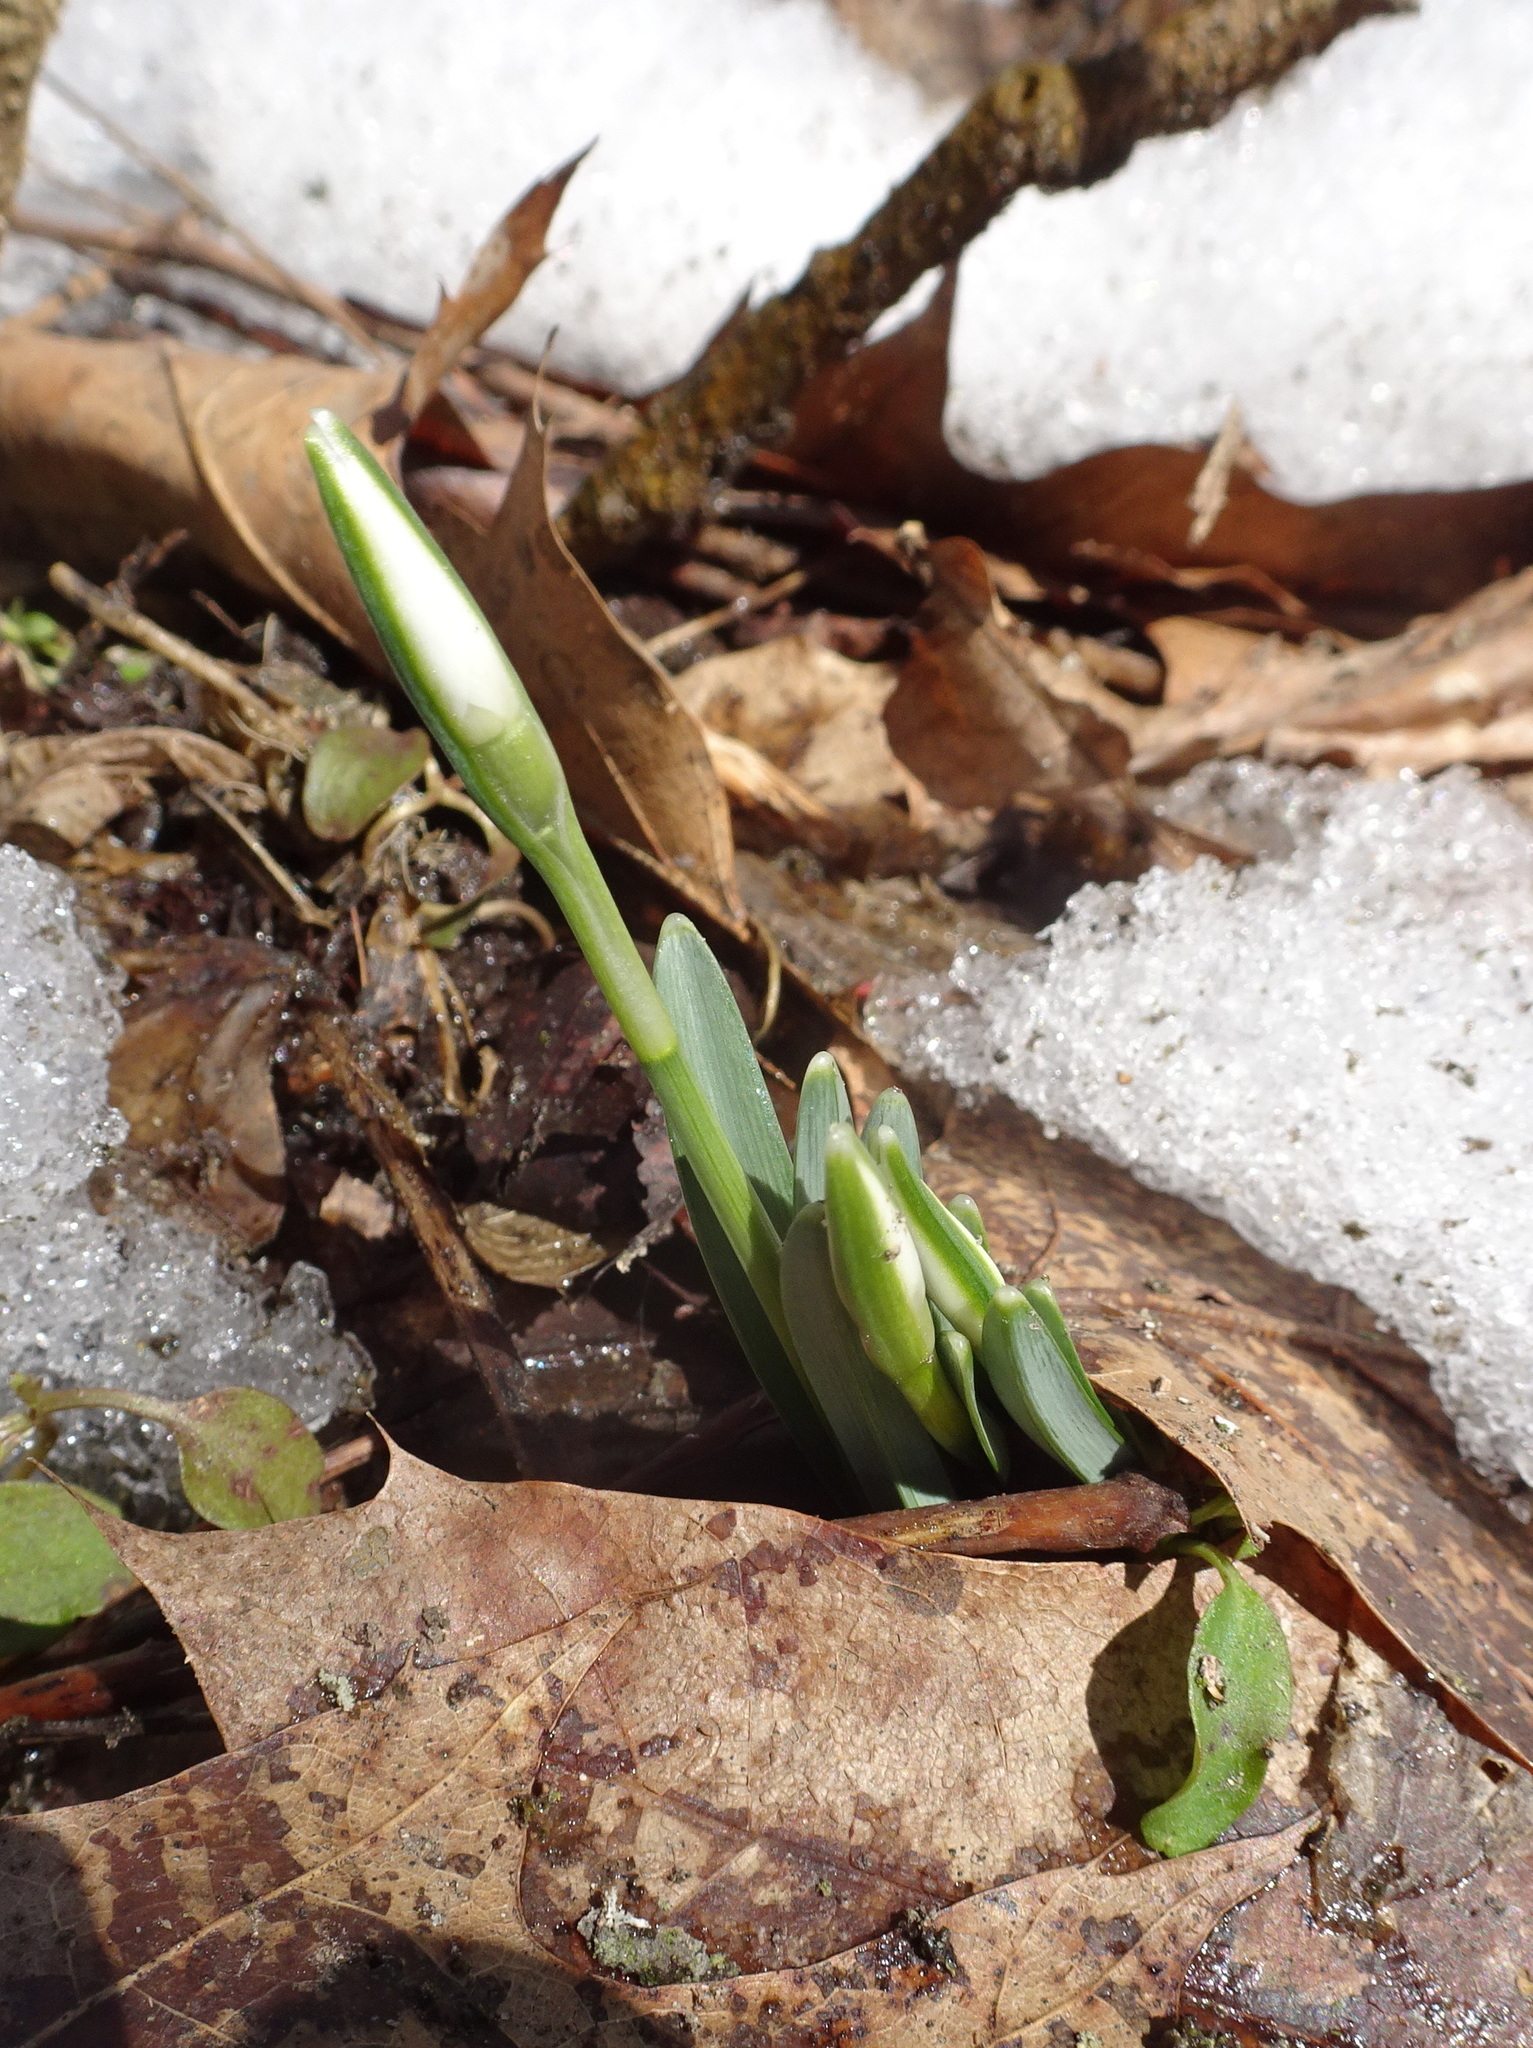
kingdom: Plantae
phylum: Tracheophyta
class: Liliopsida
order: Asparagales
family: Amaryllidaceae
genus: Galanthus
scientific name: Galanthus nivalis
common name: Snowdrop
